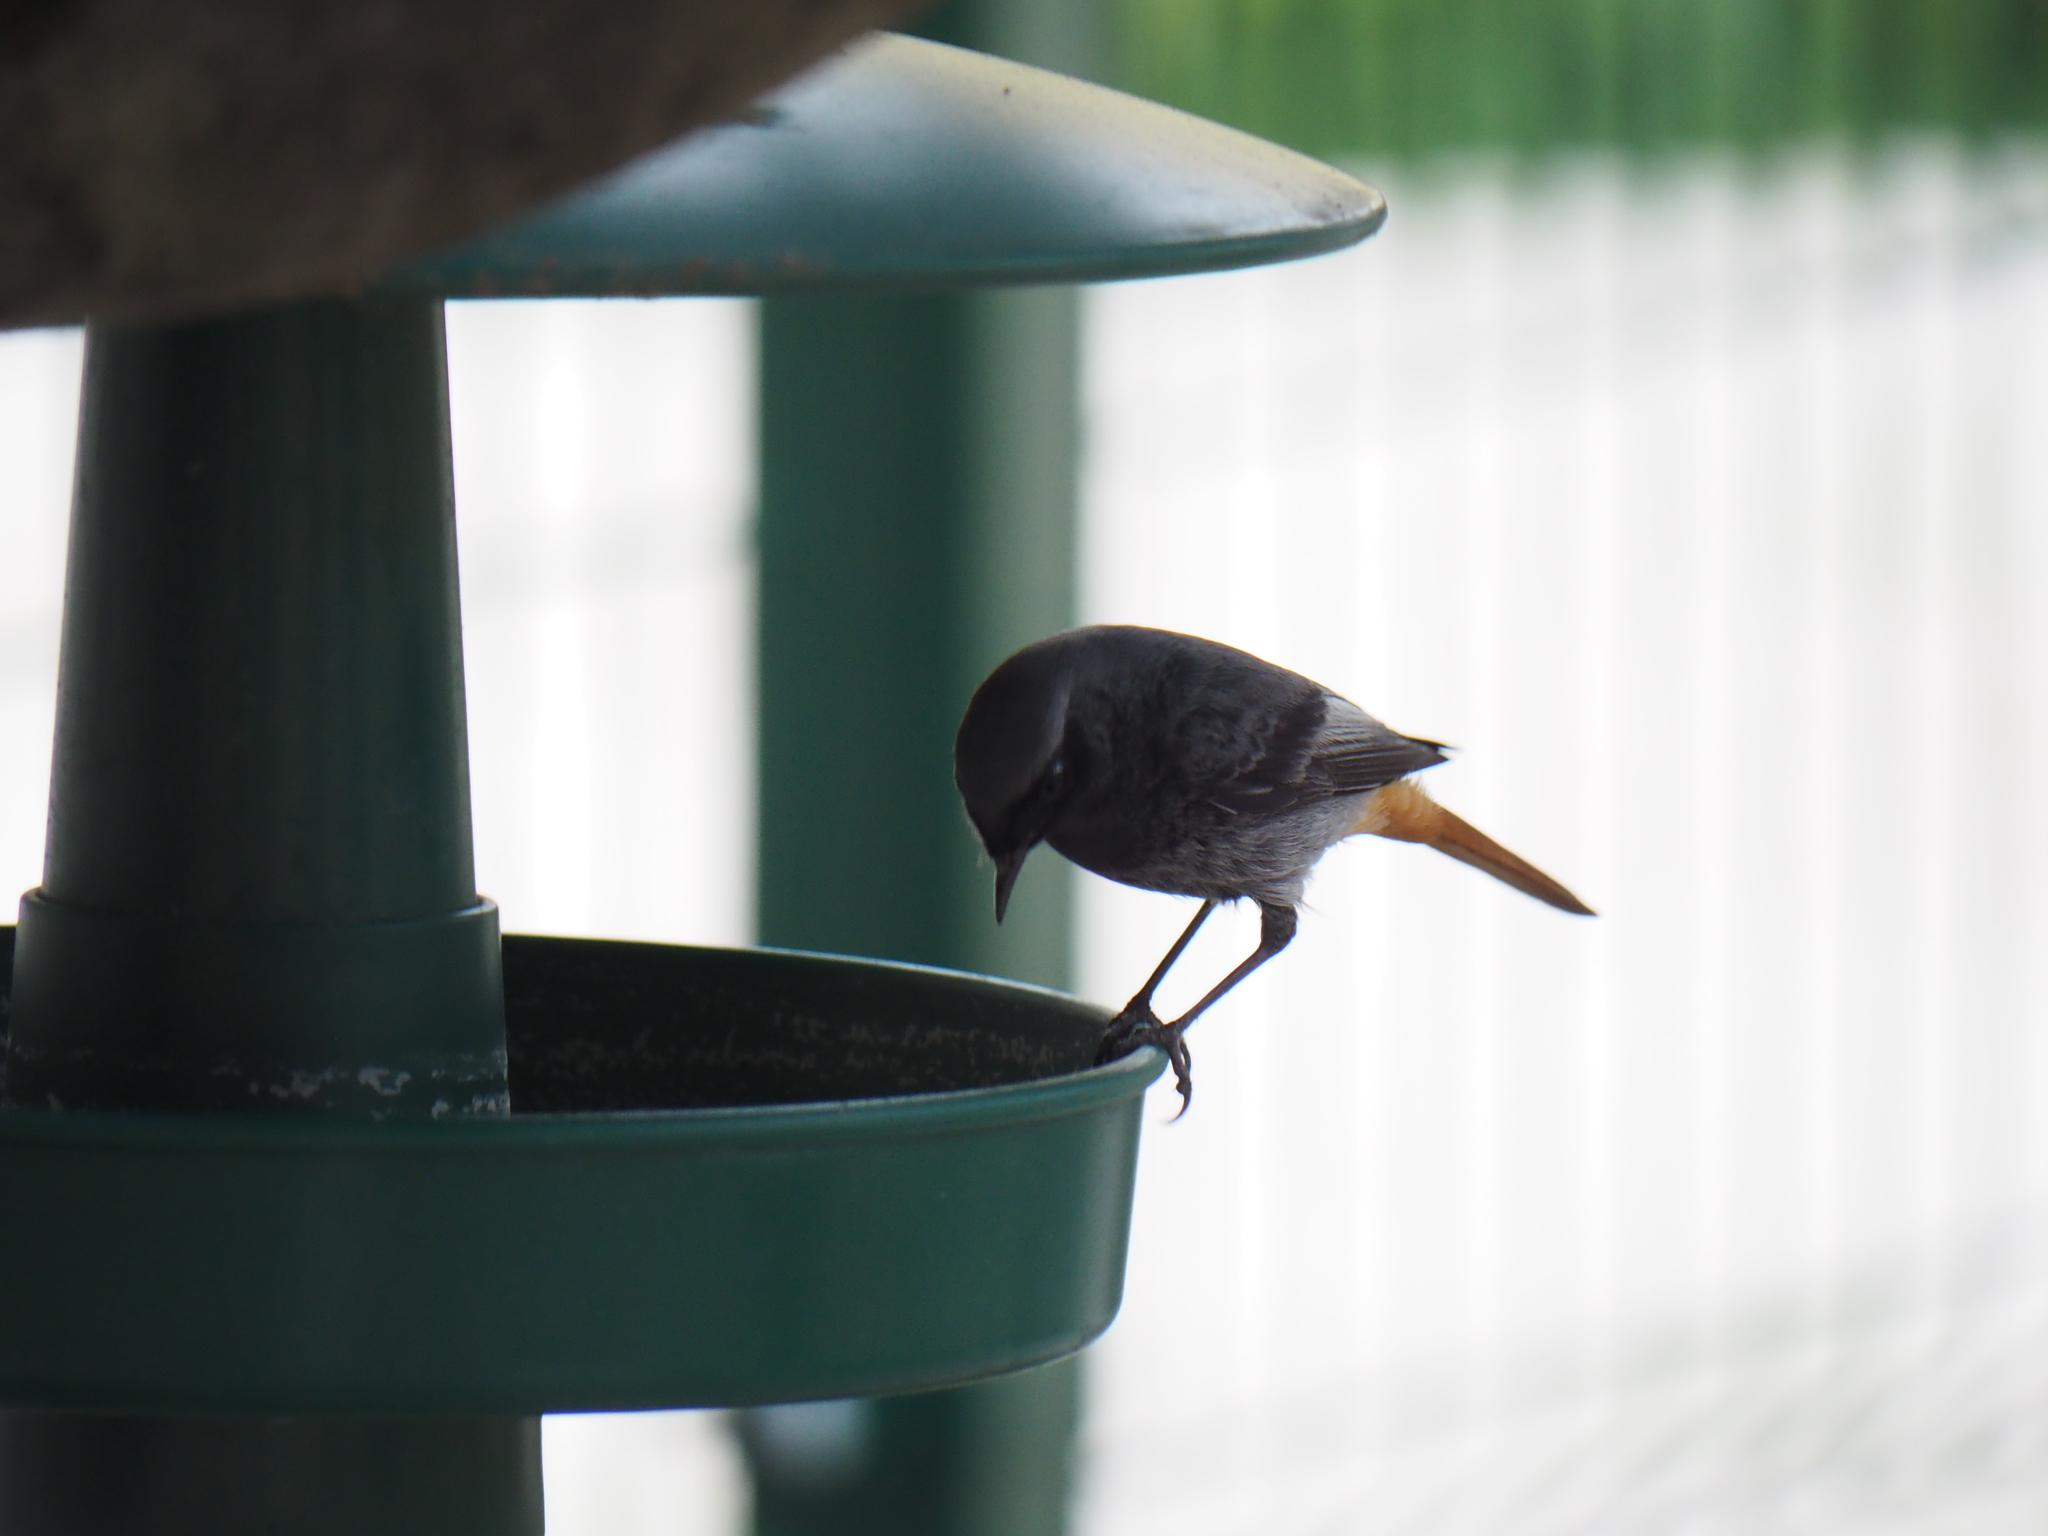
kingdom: Animalia
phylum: Chordata
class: Aves
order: Passeriformes
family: Muscicapidae
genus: Phoenicurus
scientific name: Phoenicurus ochruros
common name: Black redstart
